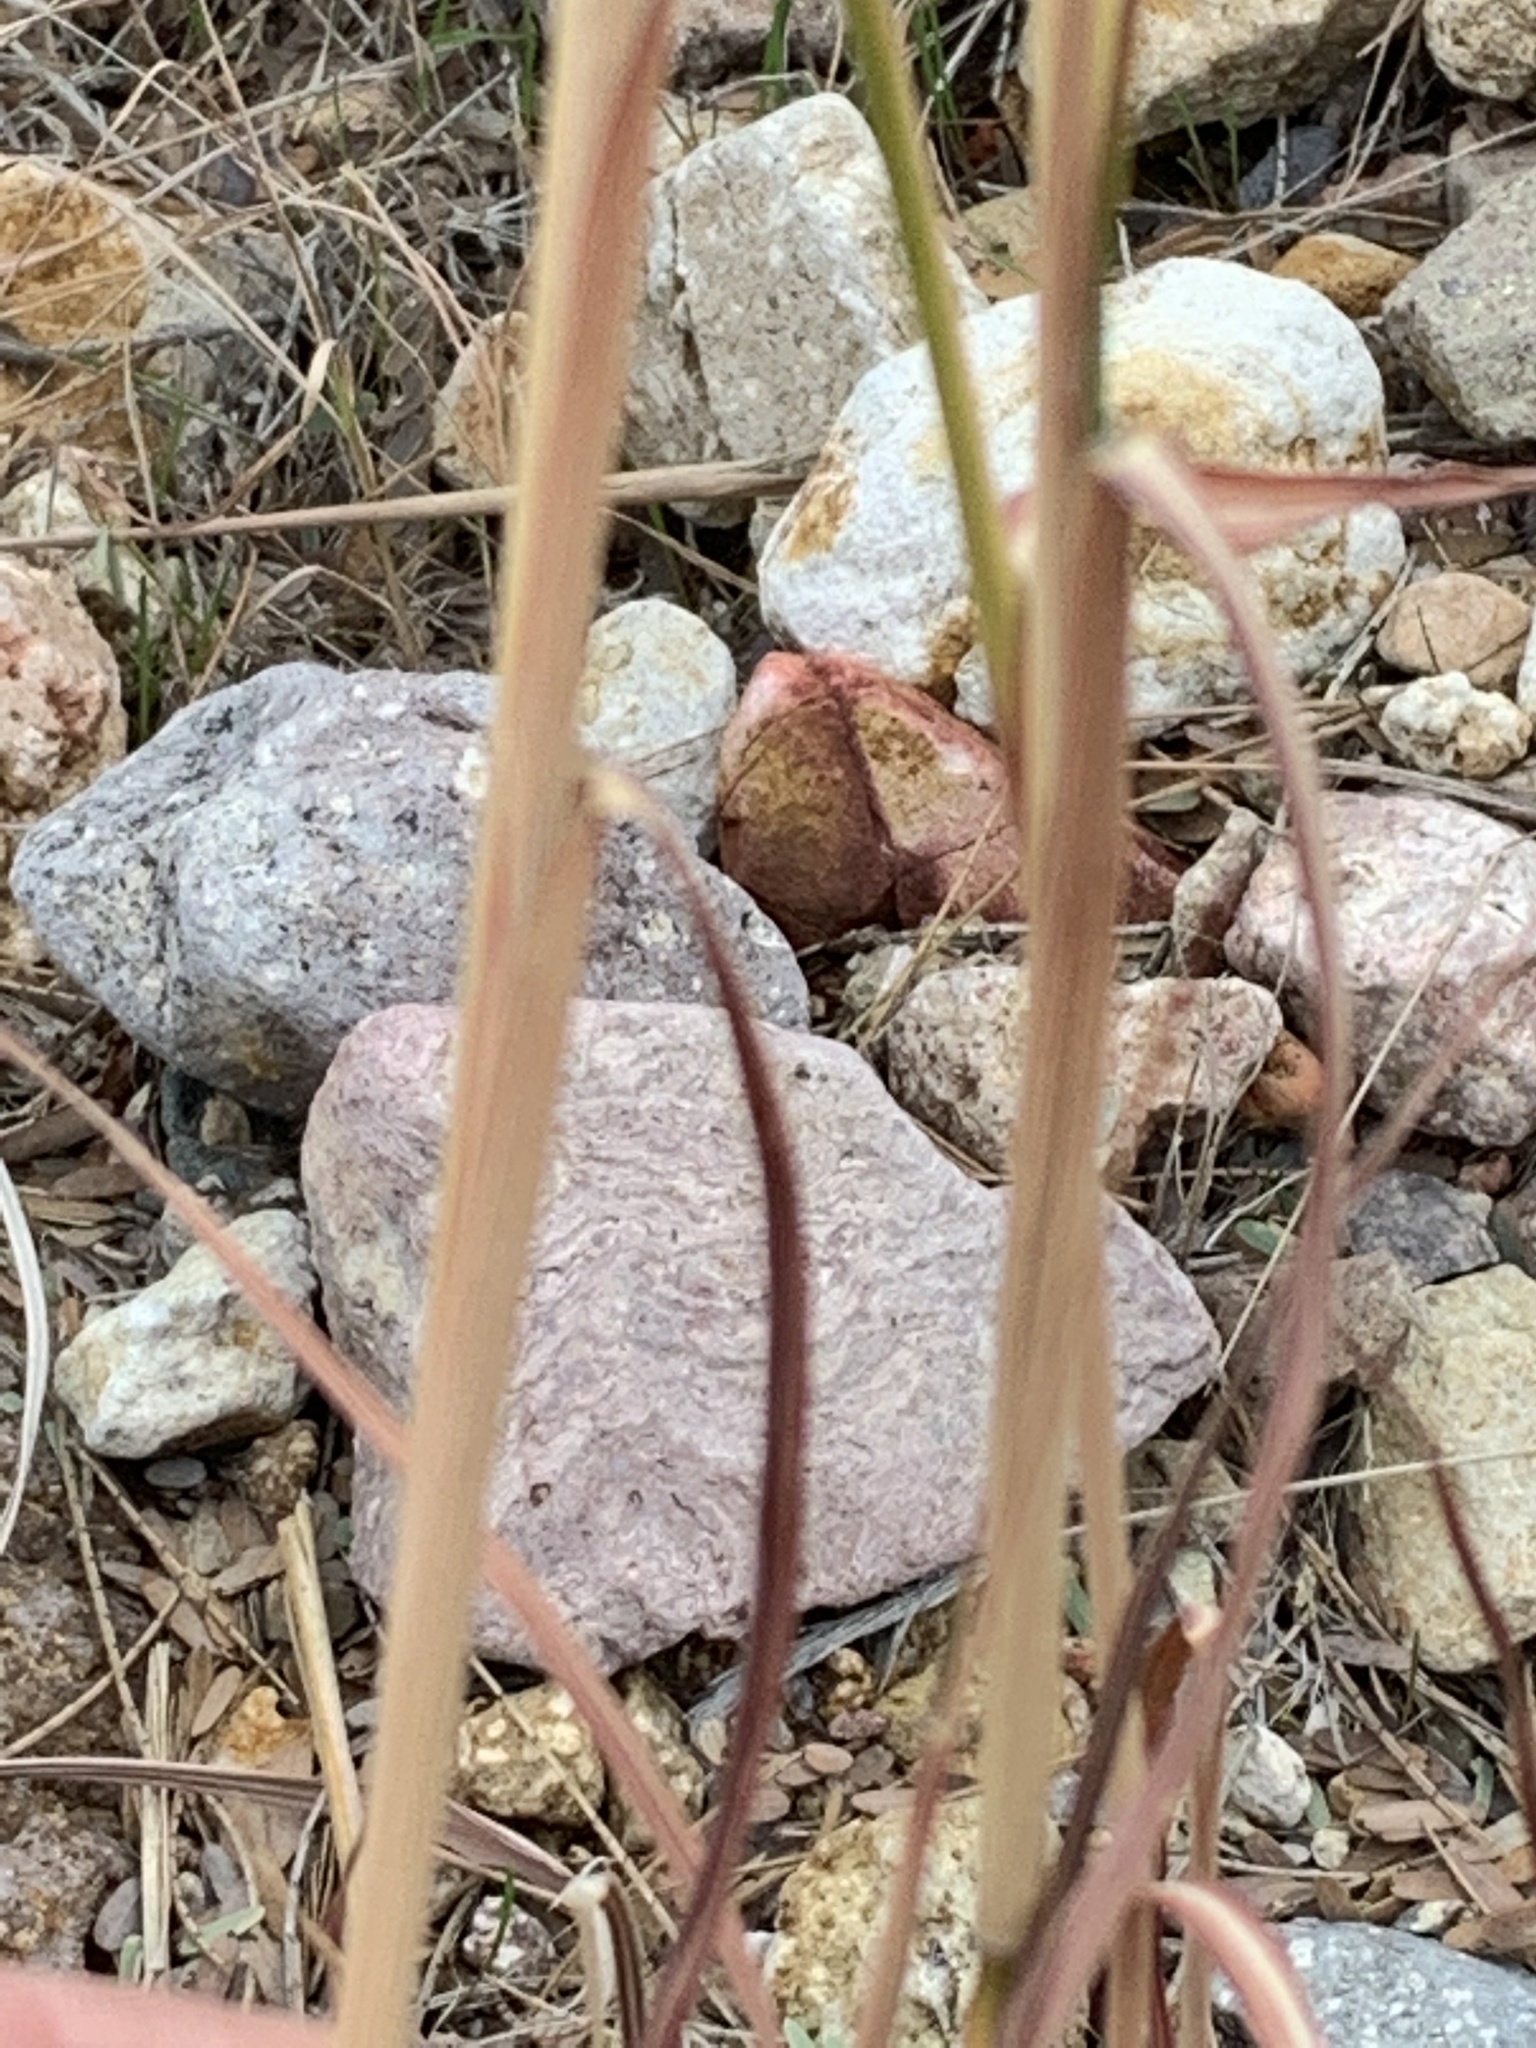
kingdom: Plantae
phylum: Tracheophyta
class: Liliopsida
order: Poales
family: Poaceae
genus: Bothriochloa
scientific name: Bothriochloa barbinodis
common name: Cane bluestem
